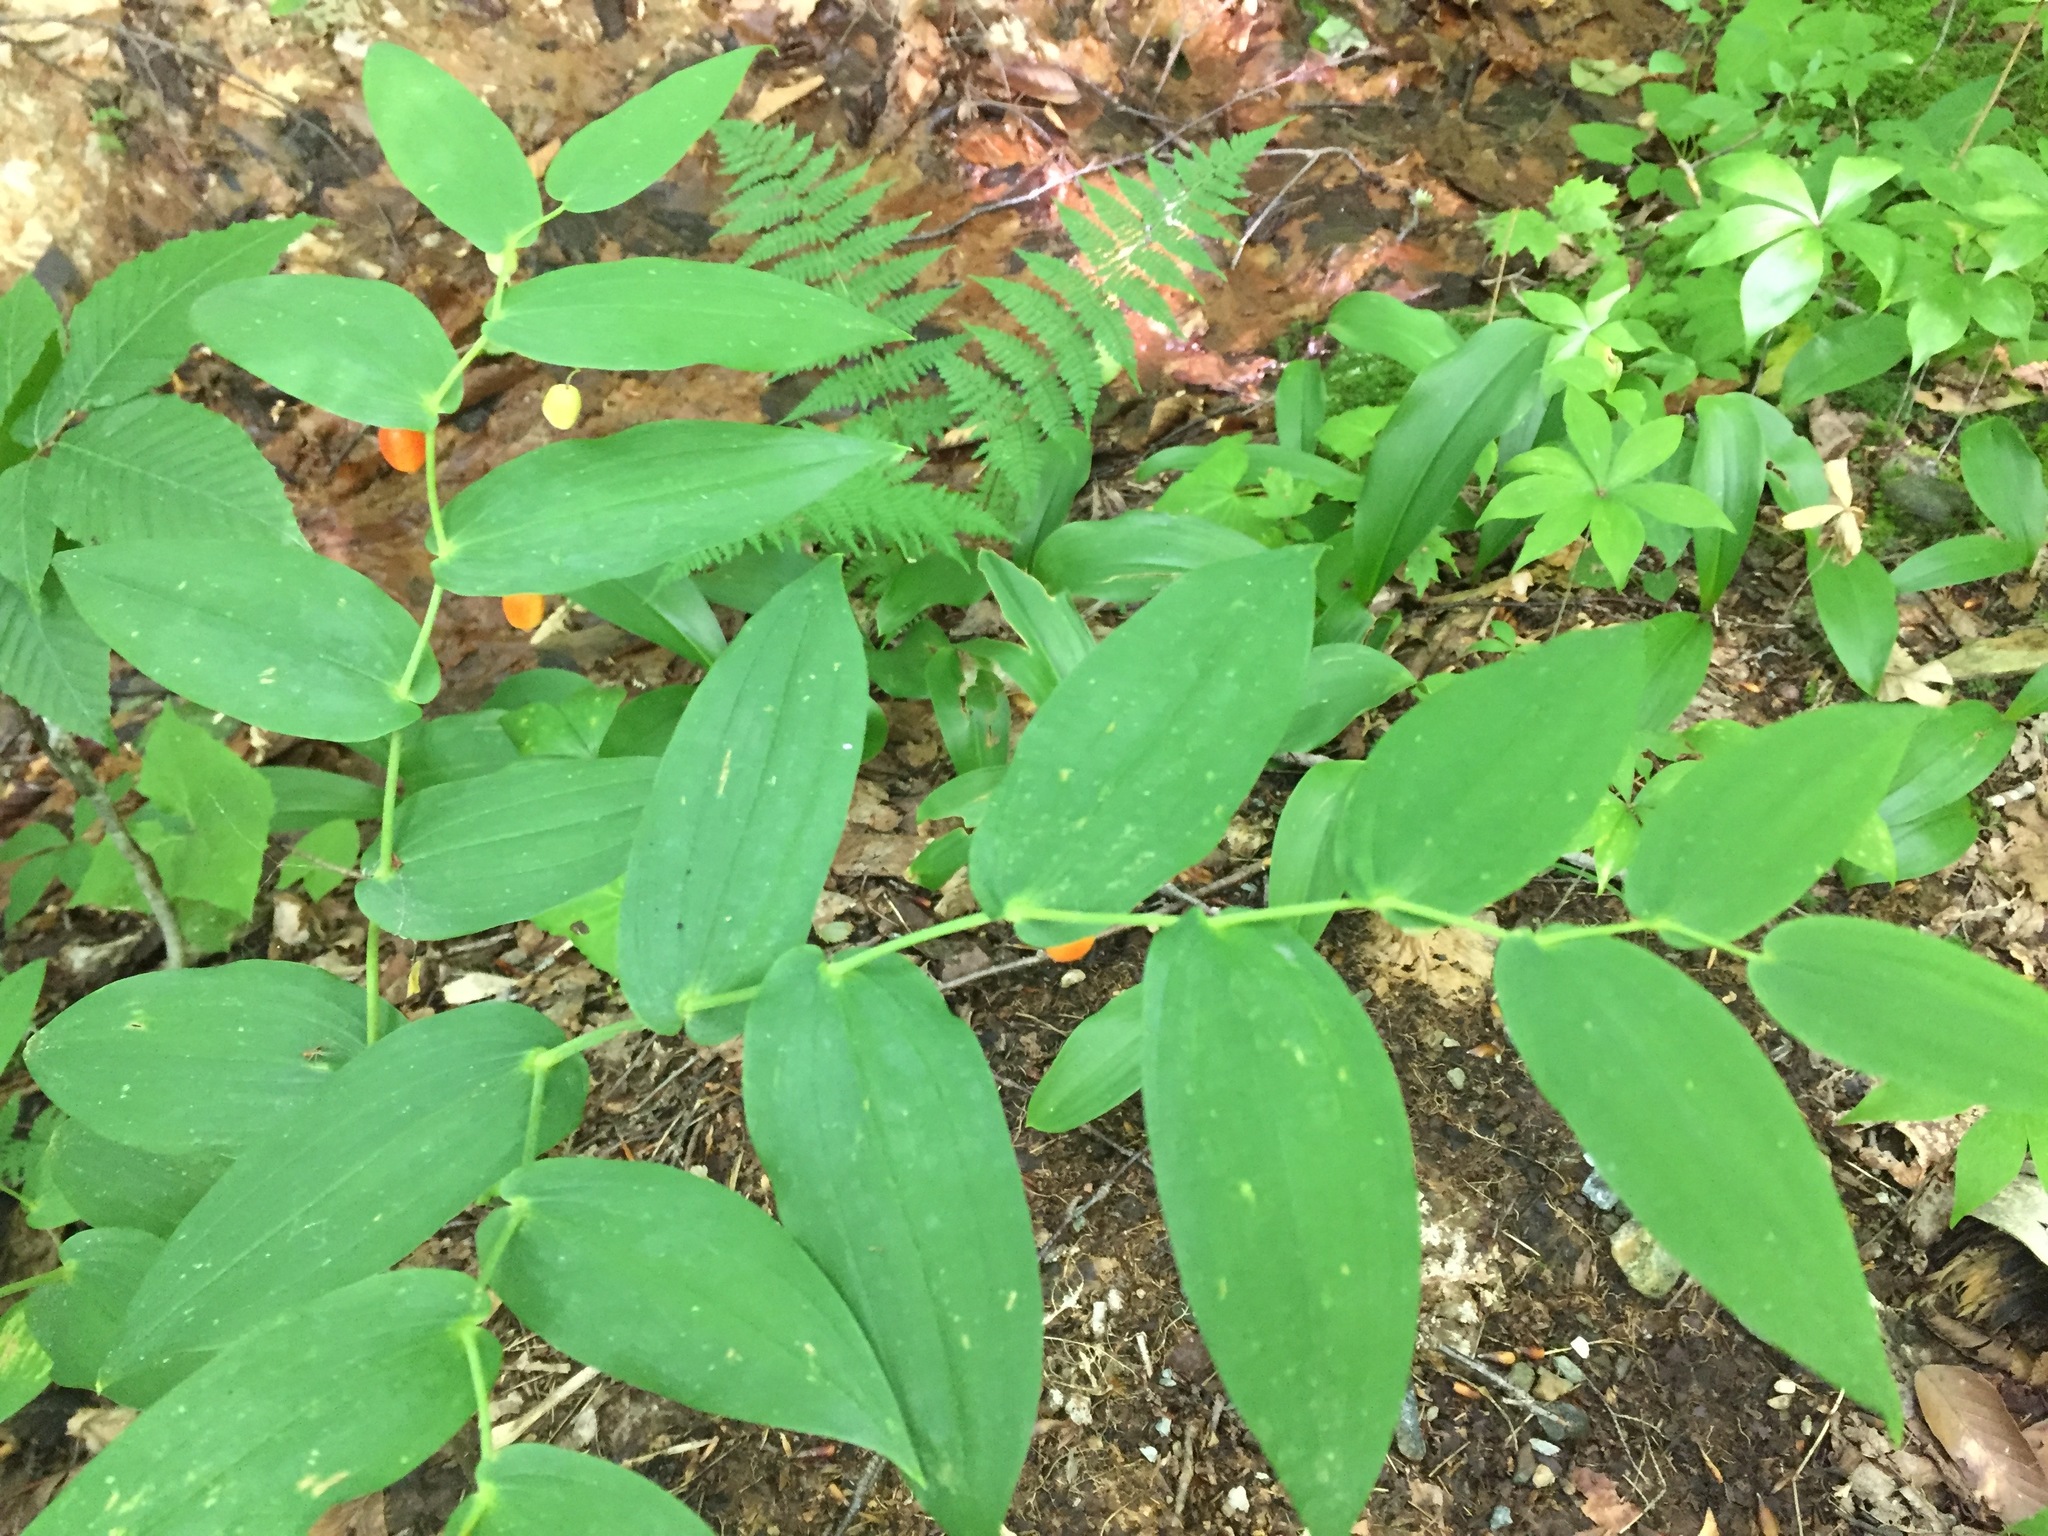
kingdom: Plantae
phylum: Tracheophyta
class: Liliopsida
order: Liliales
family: Liliaceae
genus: Streptopus
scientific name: Streptopus amplexifolius
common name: Clasp twisted stalk
